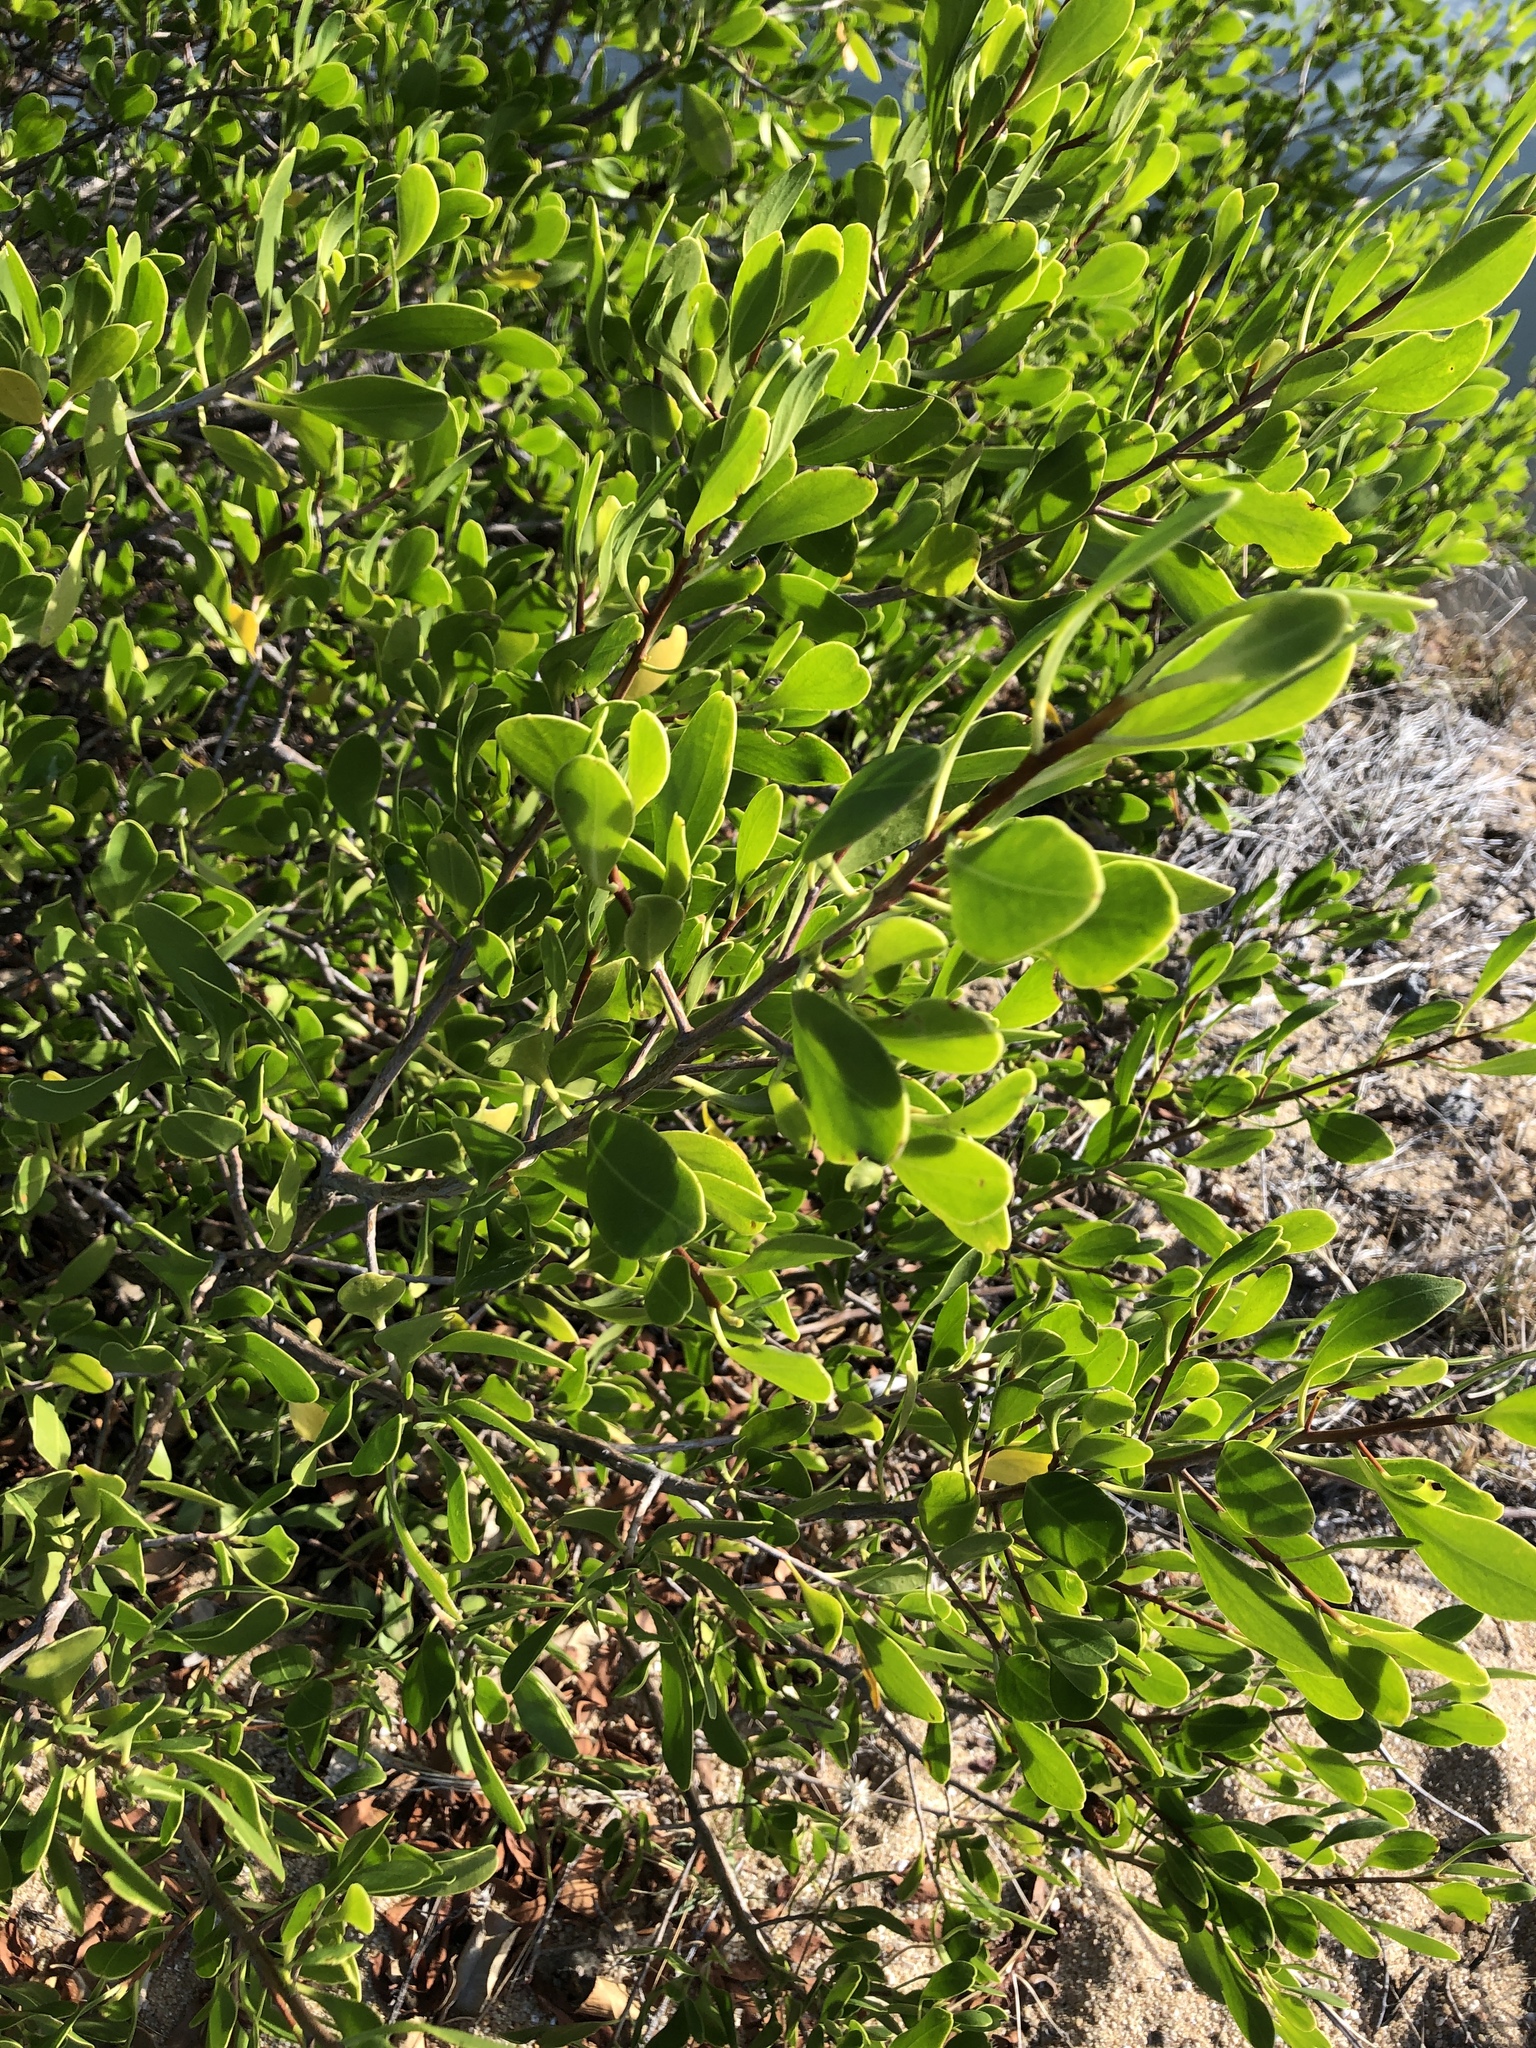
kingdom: Plantae
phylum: Tracheophyta
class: Magnoliopsida
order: Myrtales
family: Combretaceae
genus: Lumnitzera
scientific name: Lumnitzera racemosa
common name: White-flowered black mangrove
